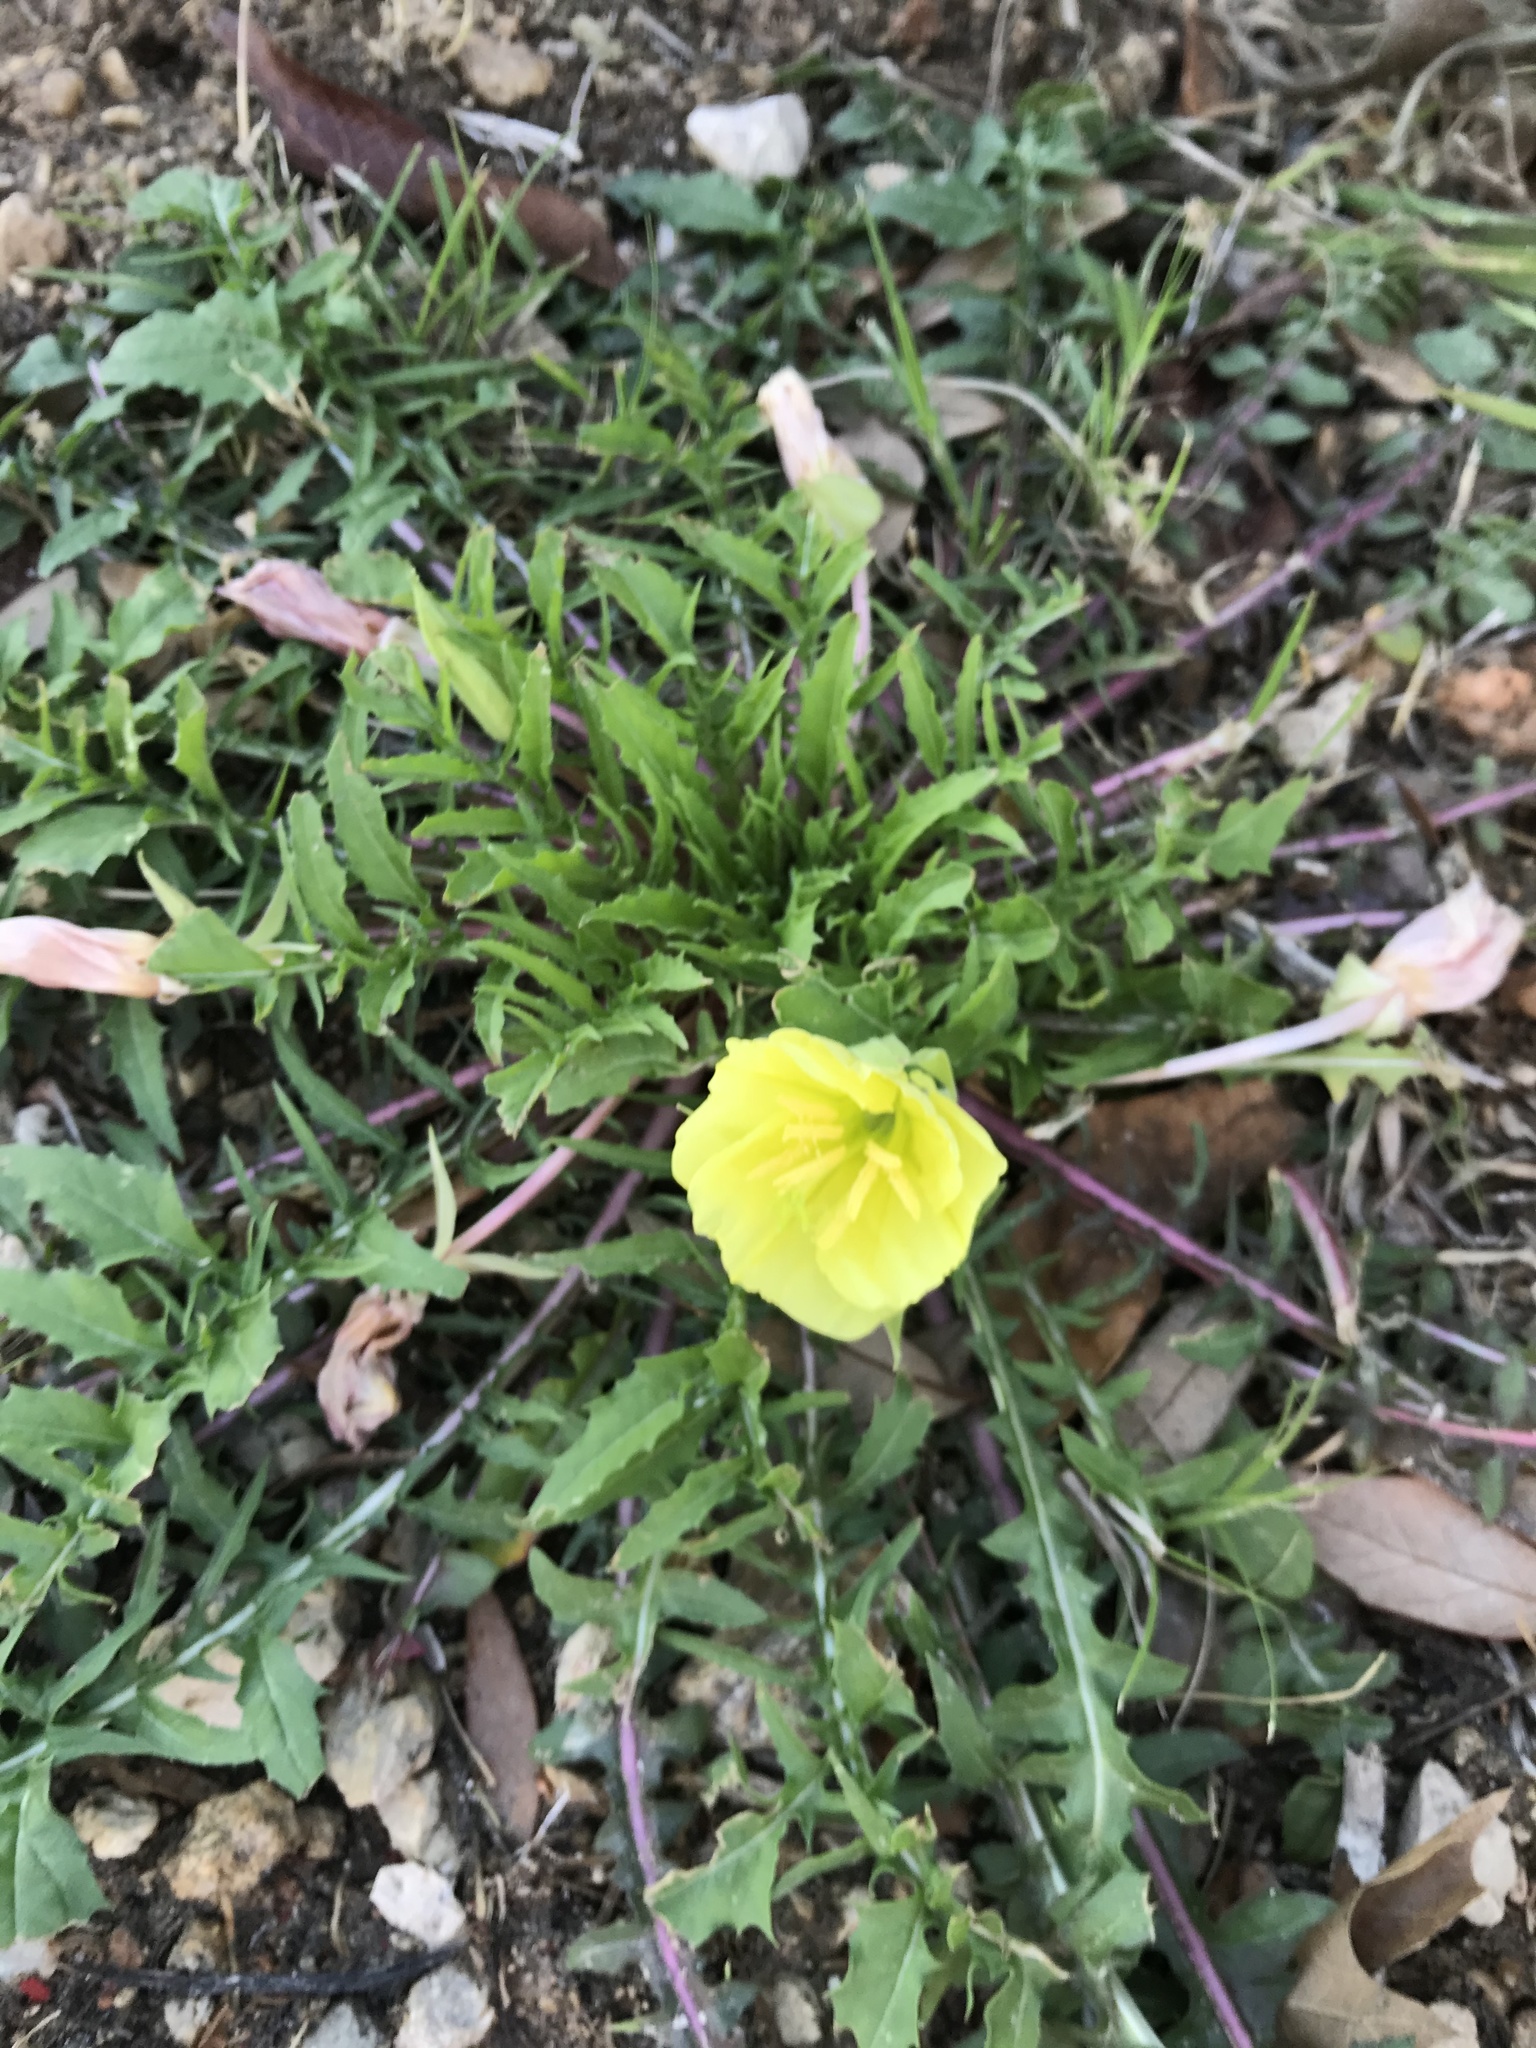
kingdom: Plantae
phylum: Tracheophyta
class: Magnoliopsida
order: Myrtales
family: Onagraceae
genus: Oenothera
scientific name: Oenothera triloba
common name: Sessile evening-primrose
